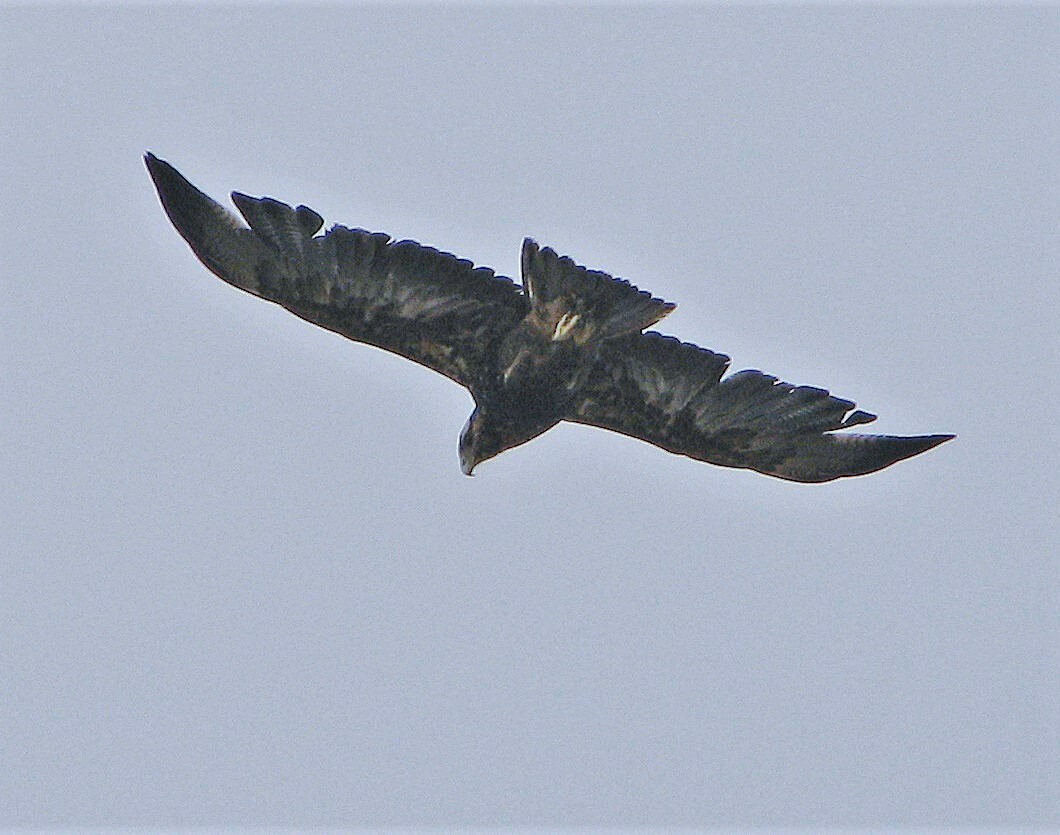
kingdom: Animalia
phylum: Chordata
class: Aves
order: Accipitriformes
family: Accipitridae
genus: Geranoaetus
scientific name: Geranoaetus melanoleucus
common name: Black-chested buzzard-eagle
